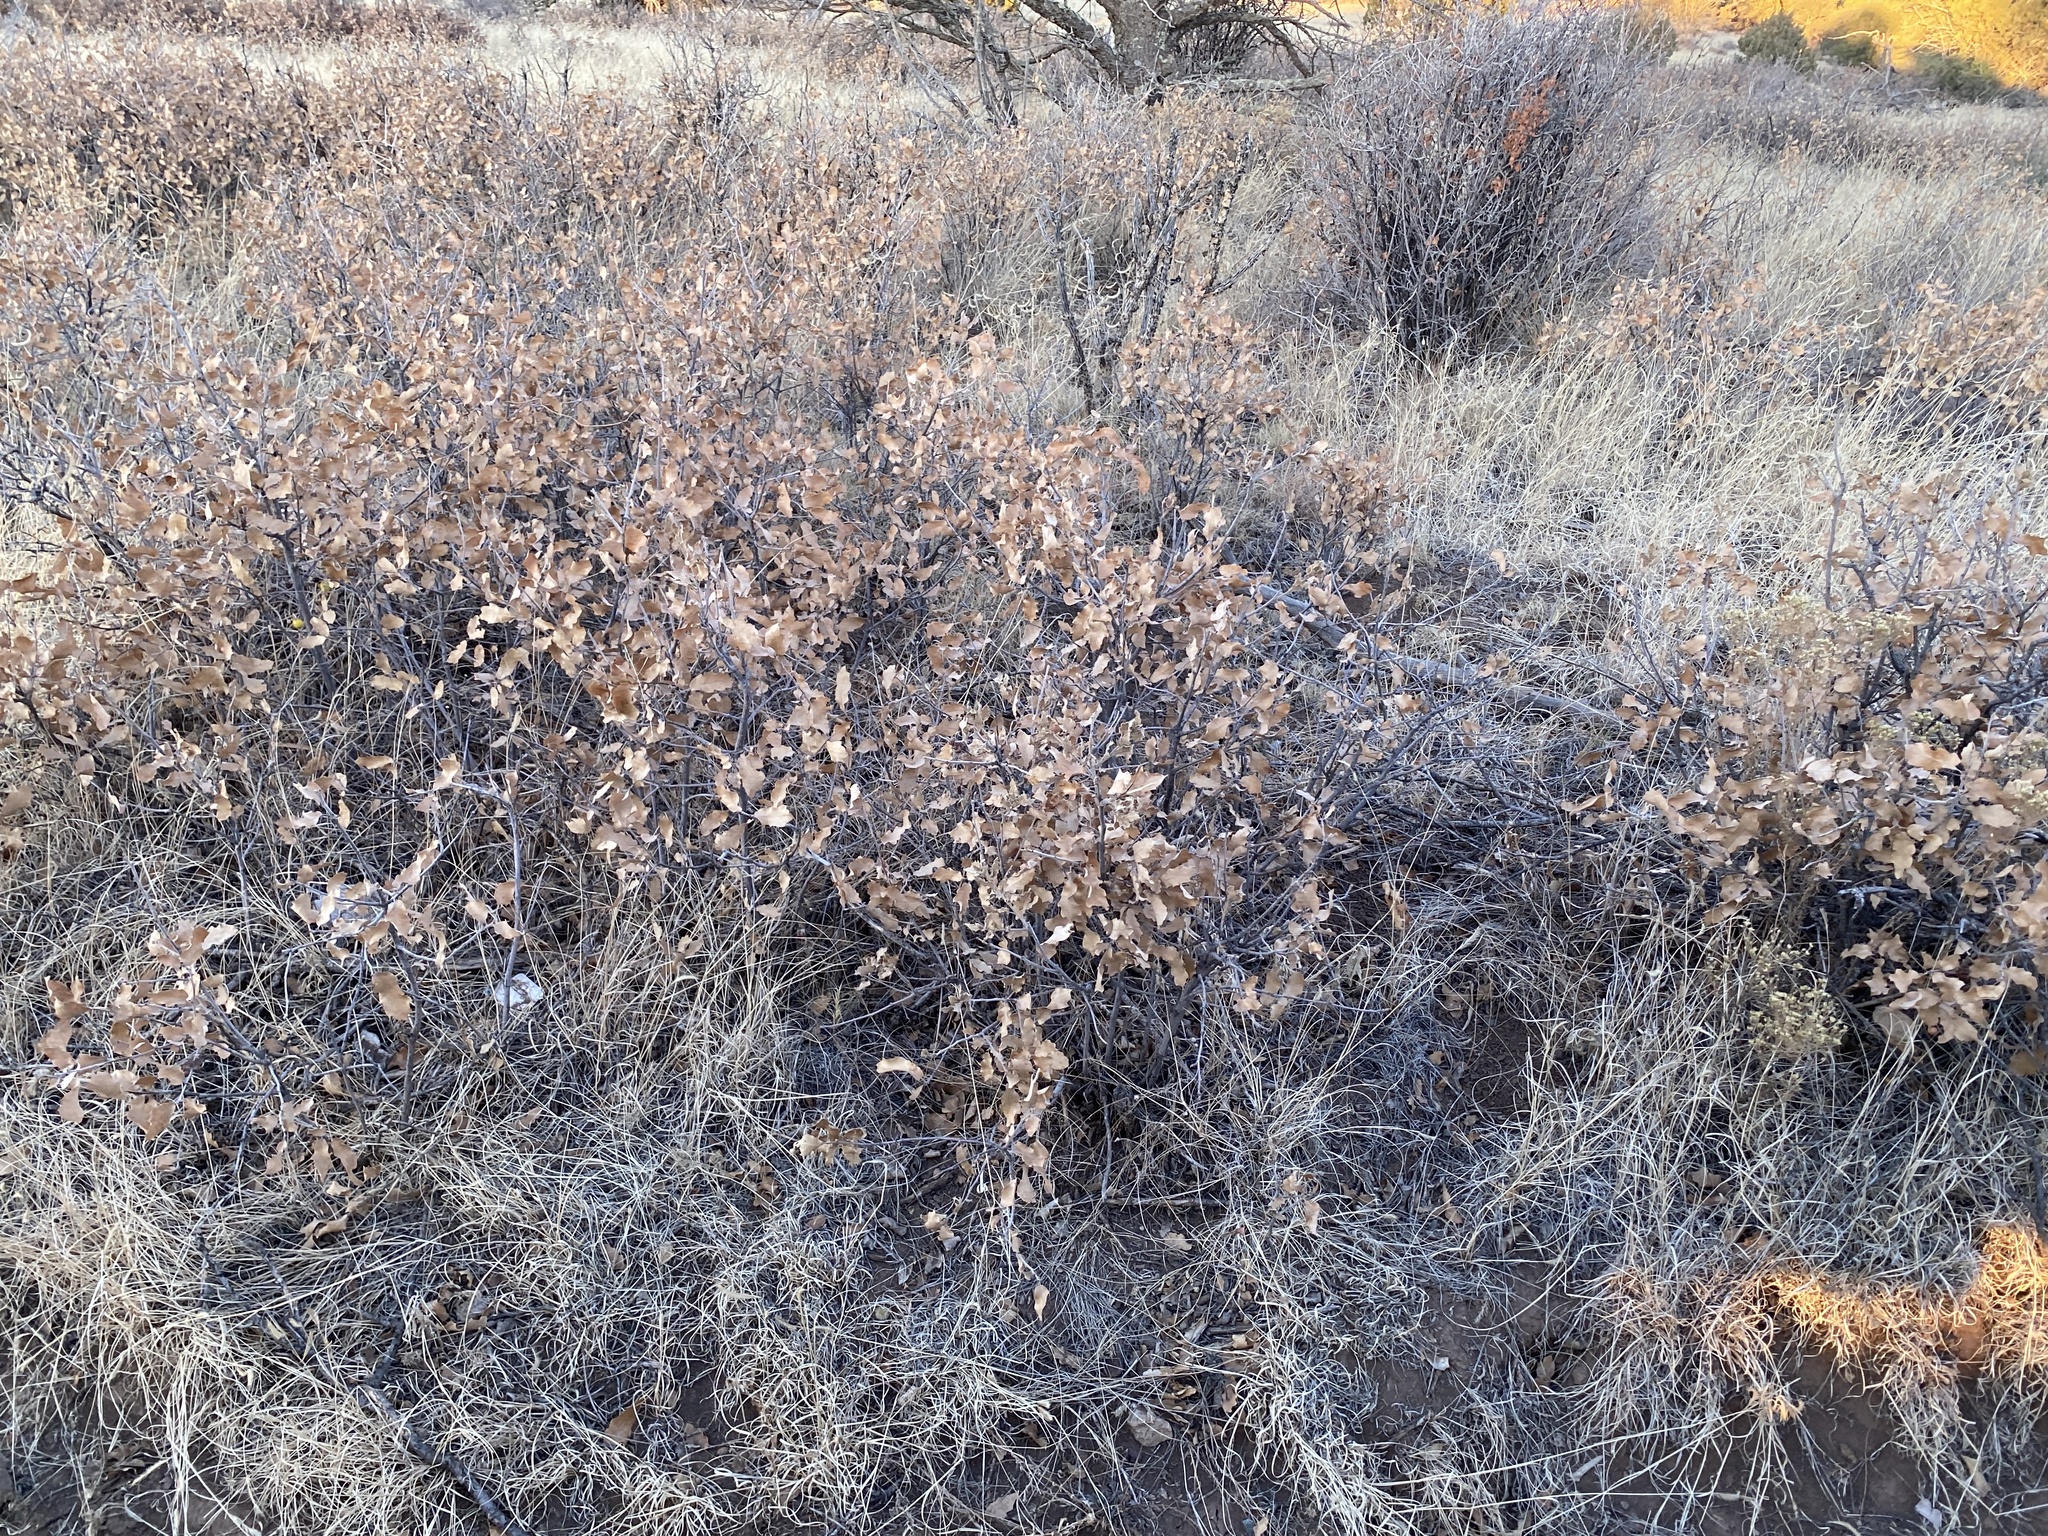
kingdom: Plantae
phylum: Tracheophyta
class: Magnoliopsida
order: Fagales
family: Fagaceae
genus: Quercus
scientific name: Quercus undulata
